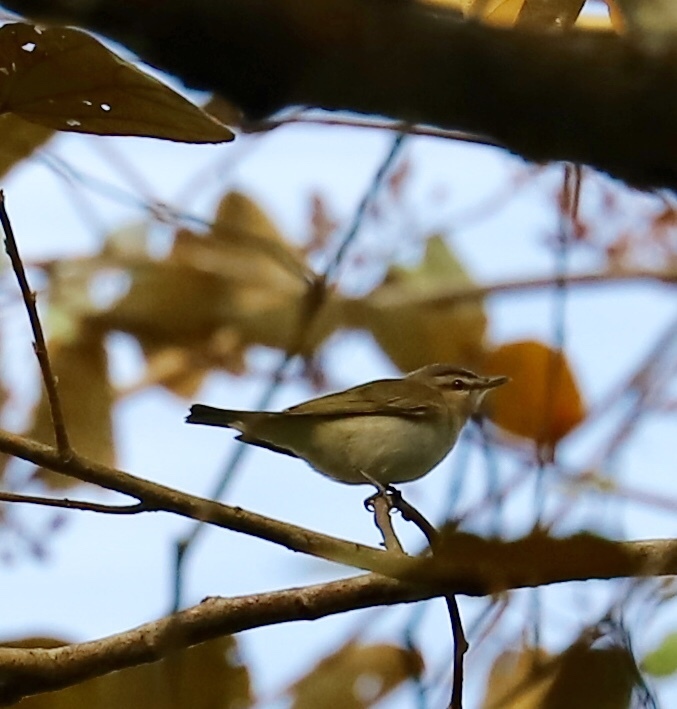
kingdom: Animalia
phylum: Chordata
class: Aves
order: Passeriformes
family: Vireonidae
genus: Vireo
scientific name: Vireo olivaceus
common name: Red-eyed vireo
